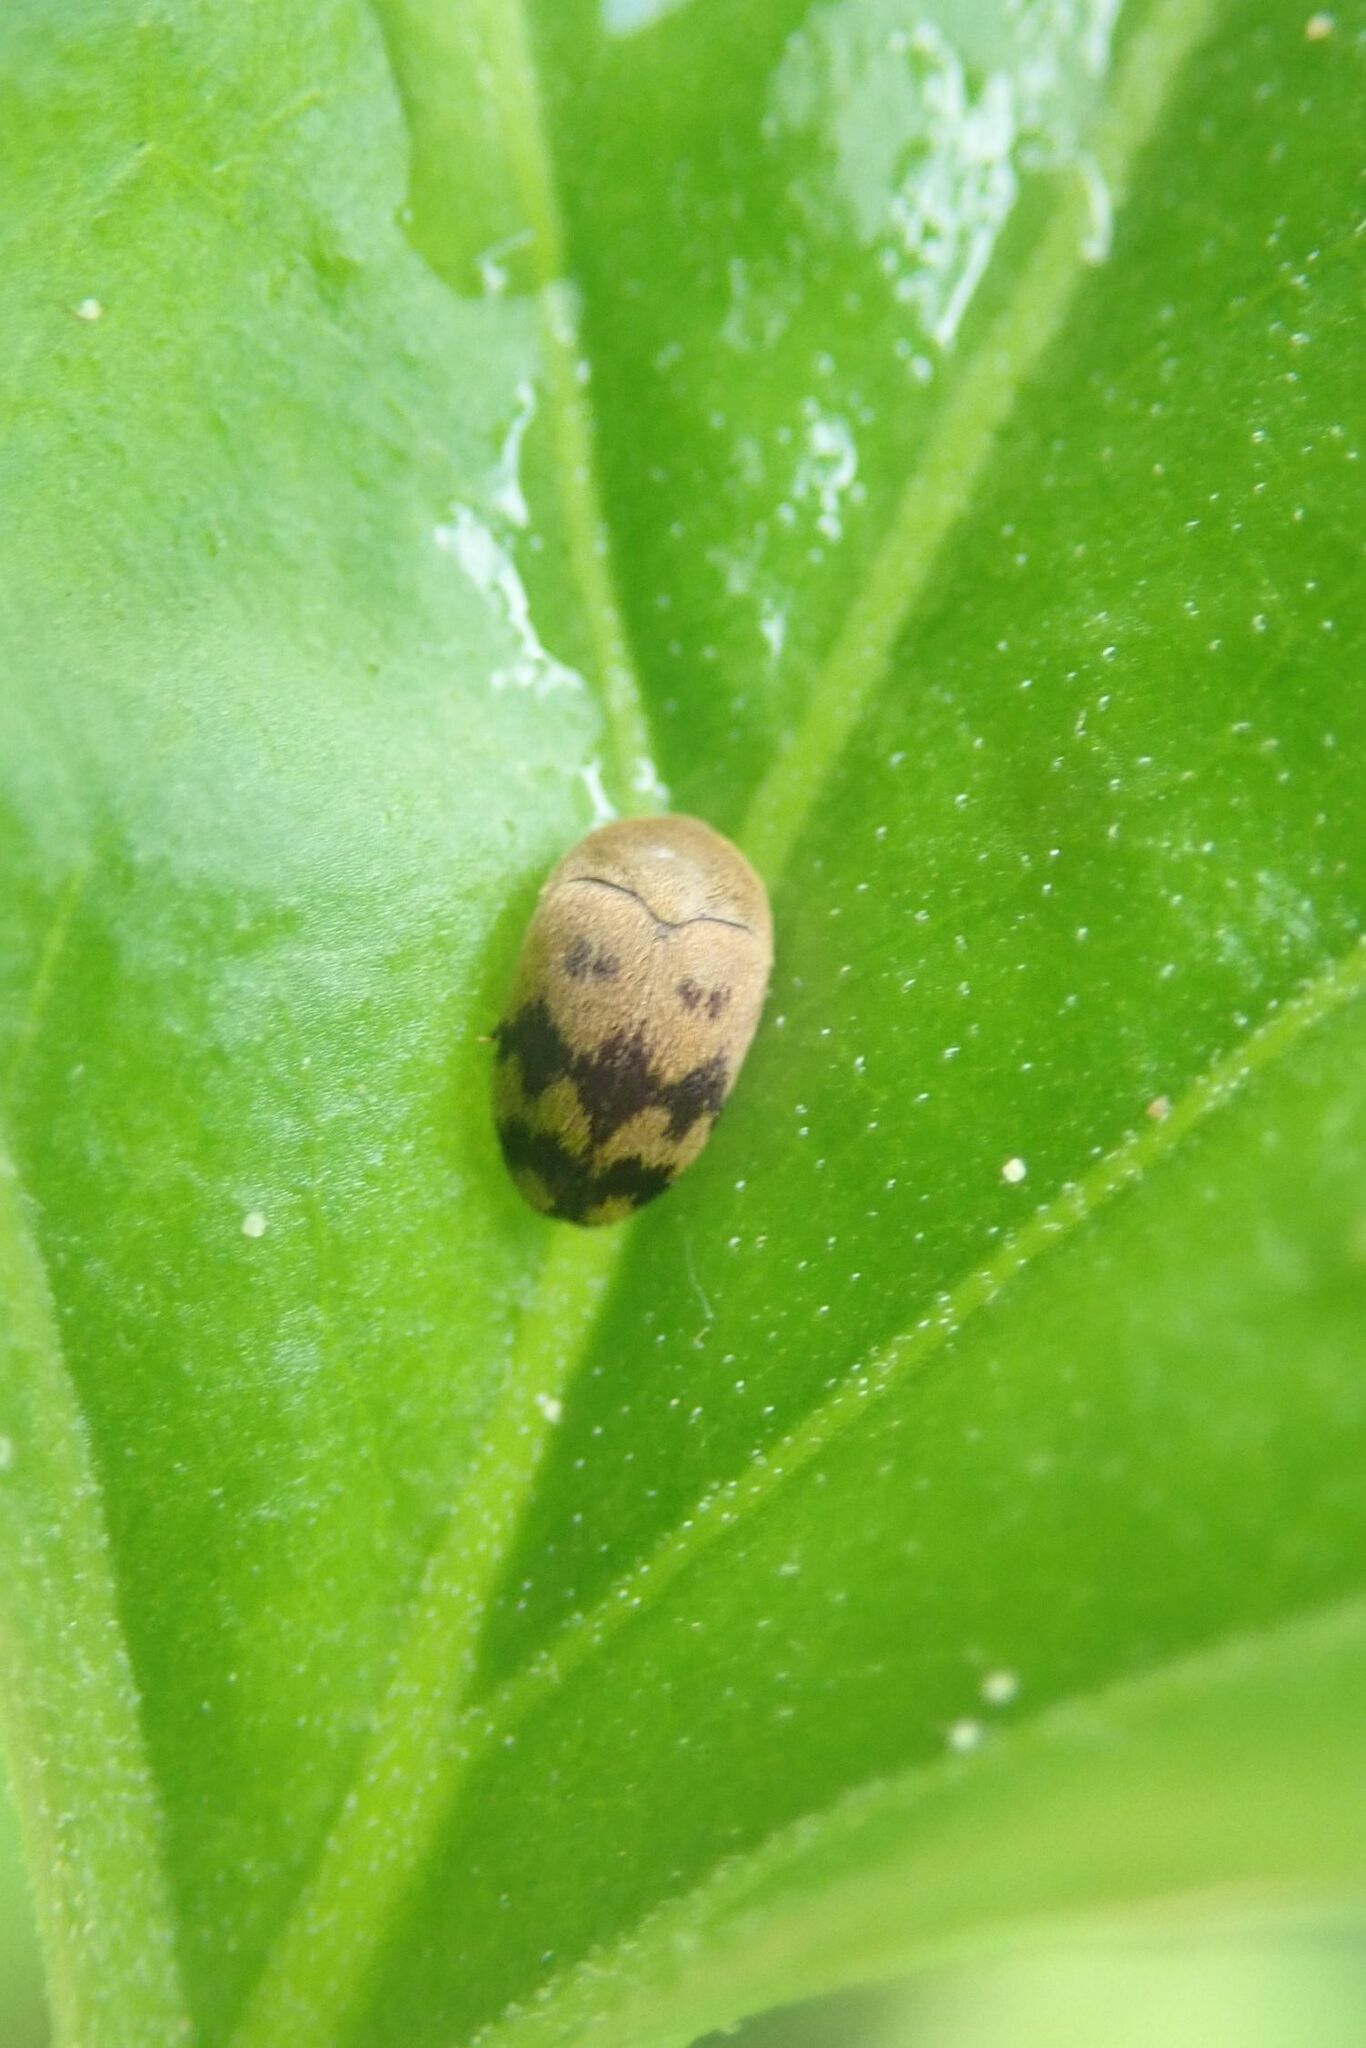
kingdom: Animalia
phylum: Arthropoda
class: Insecta
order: Coleoptera
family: Dermestidae
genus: Attagenus
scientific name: Attagenus
